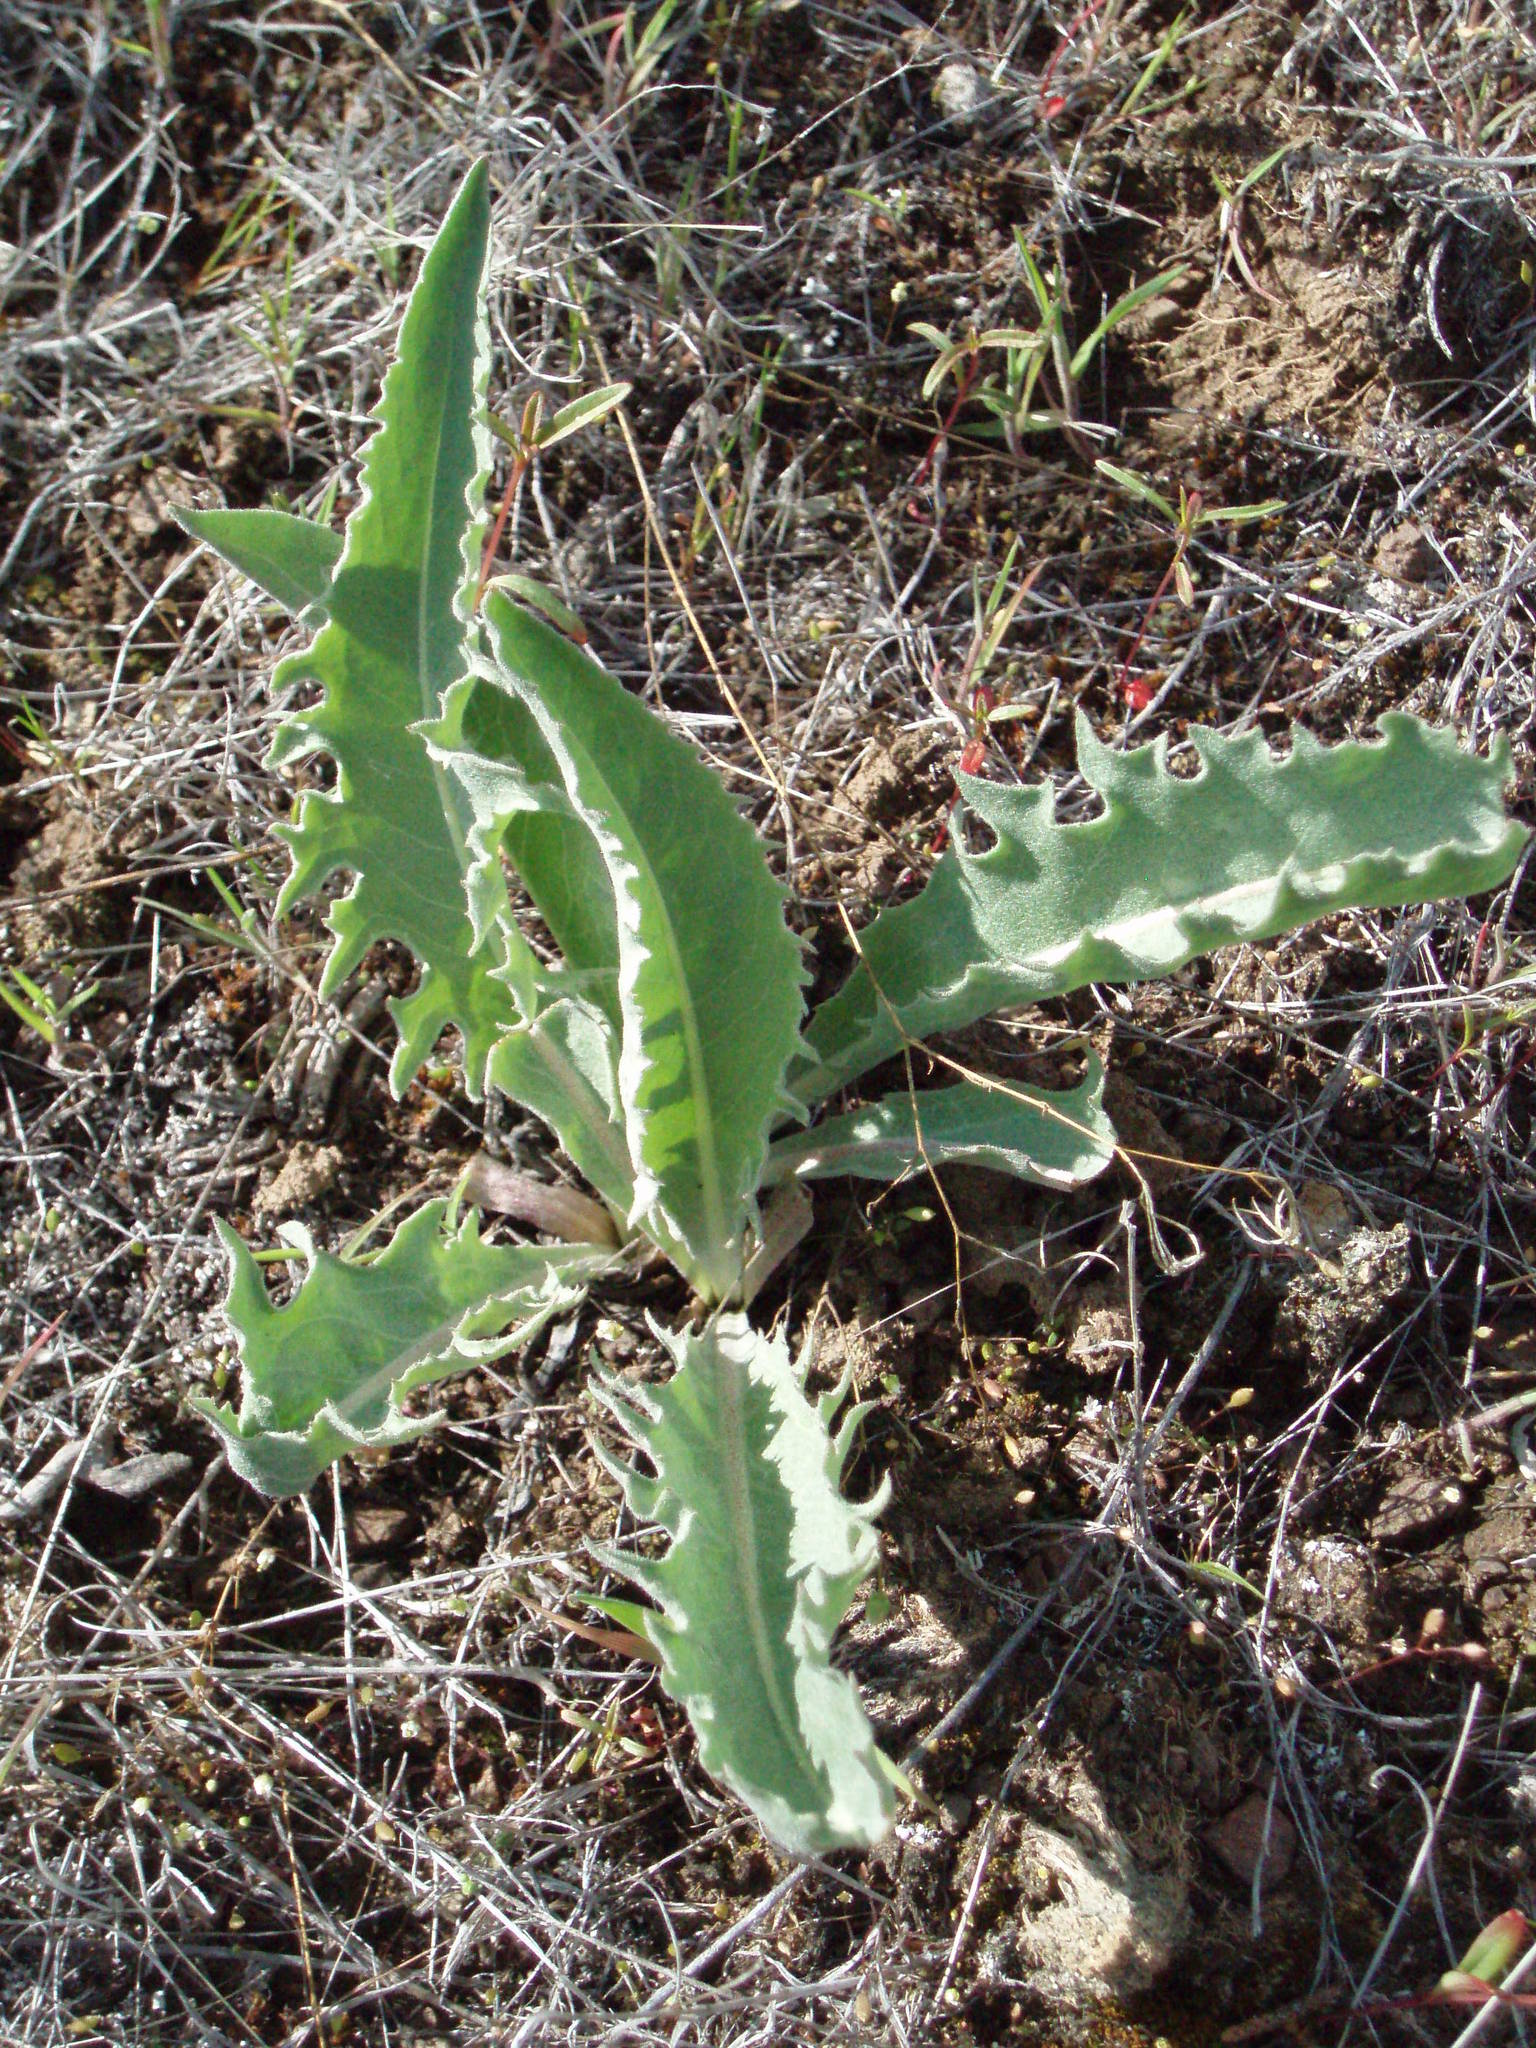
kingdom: Plantae
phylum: Tracheophyta
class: Magnoliopsida
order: Asterales
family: Asteraceae
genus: Leuzea
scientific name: Leuzea repens
